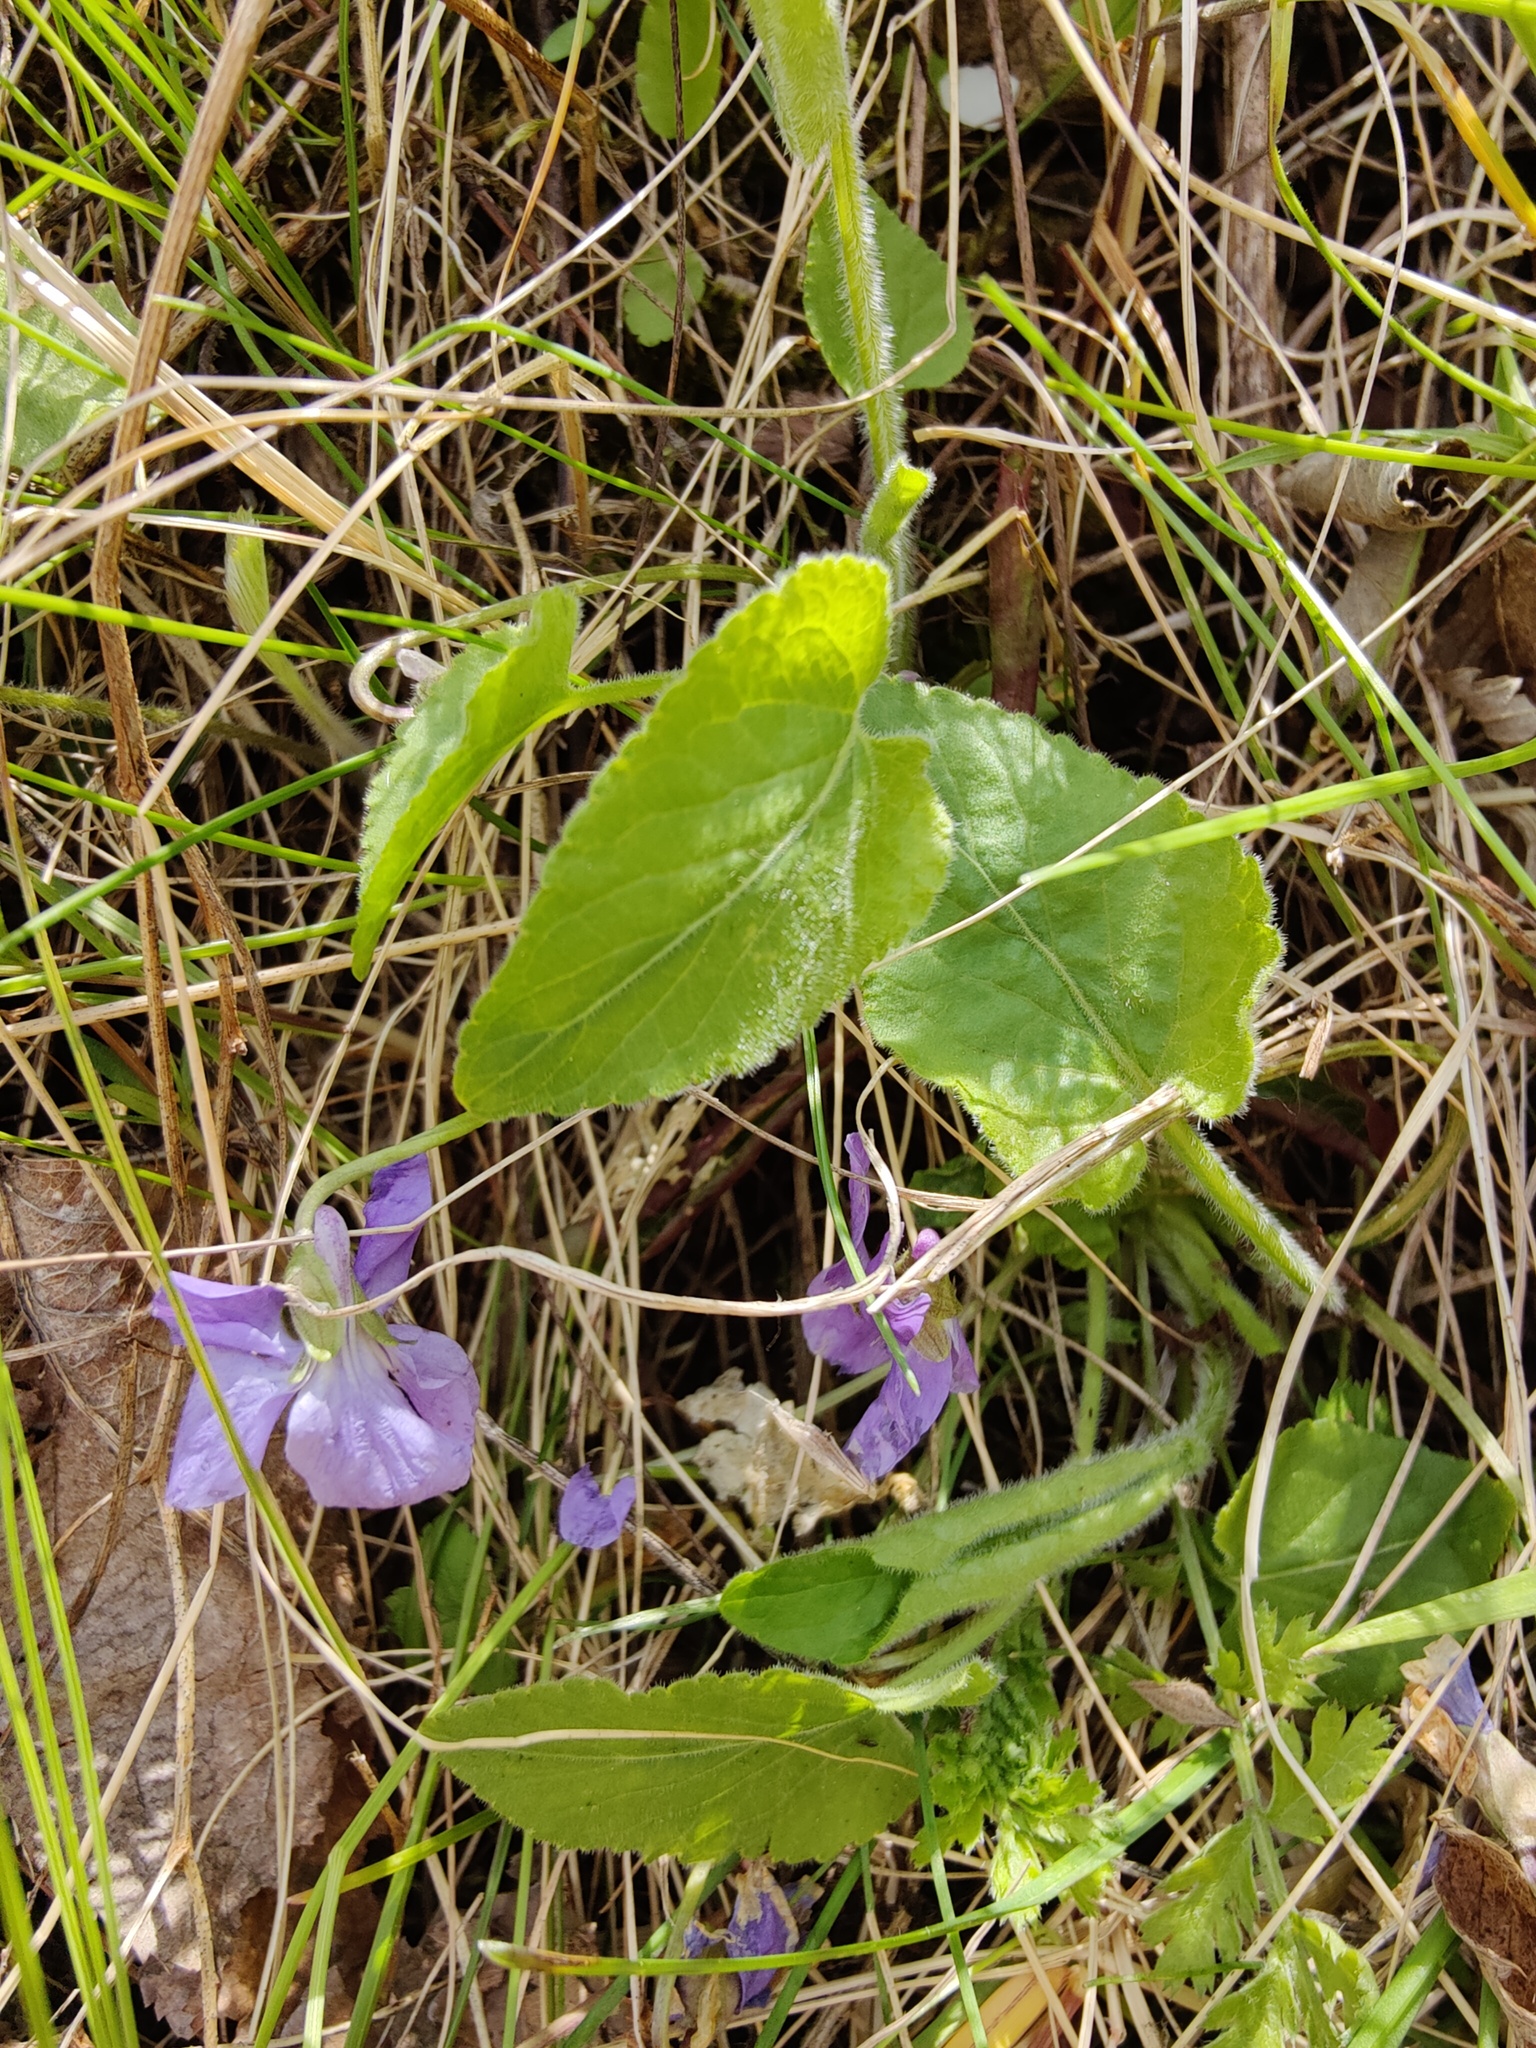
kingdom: Plantae
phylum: Tracheophyta
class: Magnoliopsida
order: Malpighiales
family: Violaceae
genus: Viola
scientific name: Viola hirta
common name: Hairy violet
